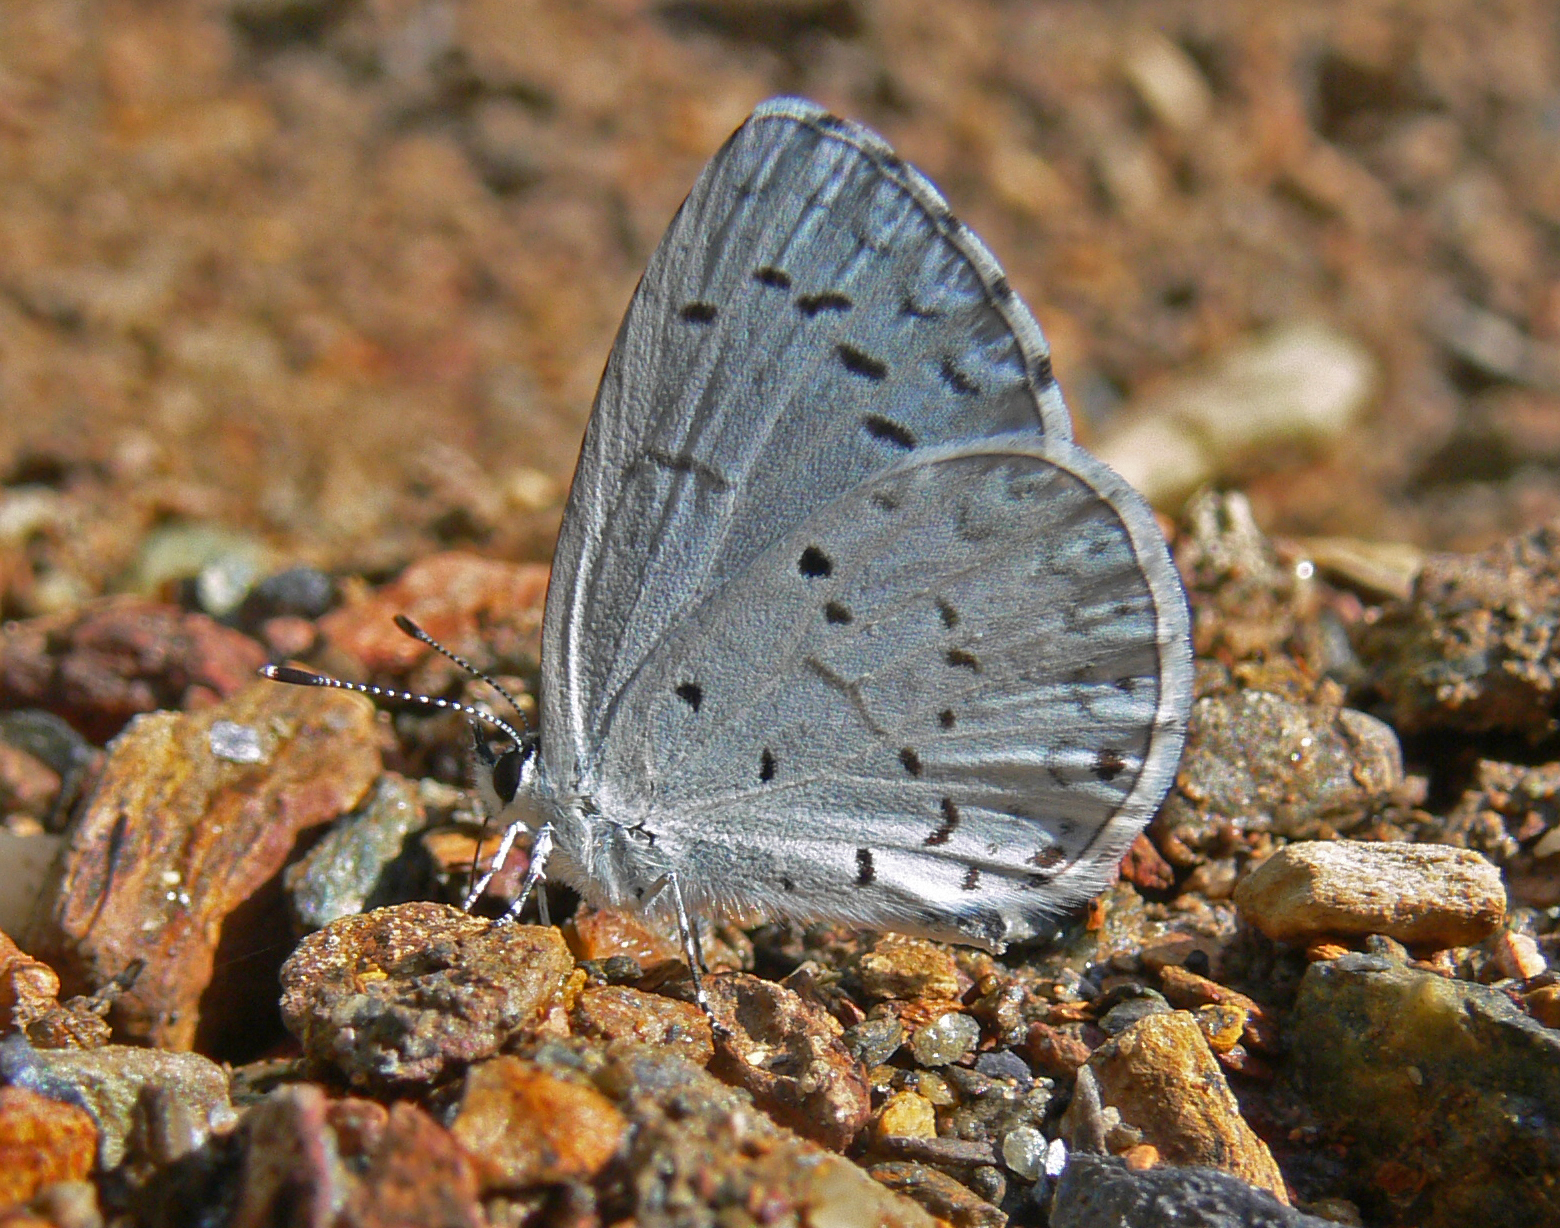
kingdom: Animalia
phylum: Arthropoda
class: Insecta
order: Lepidoptera
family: Lycaenidae
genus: Cyaniris
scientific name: Cyaniris neglecta
